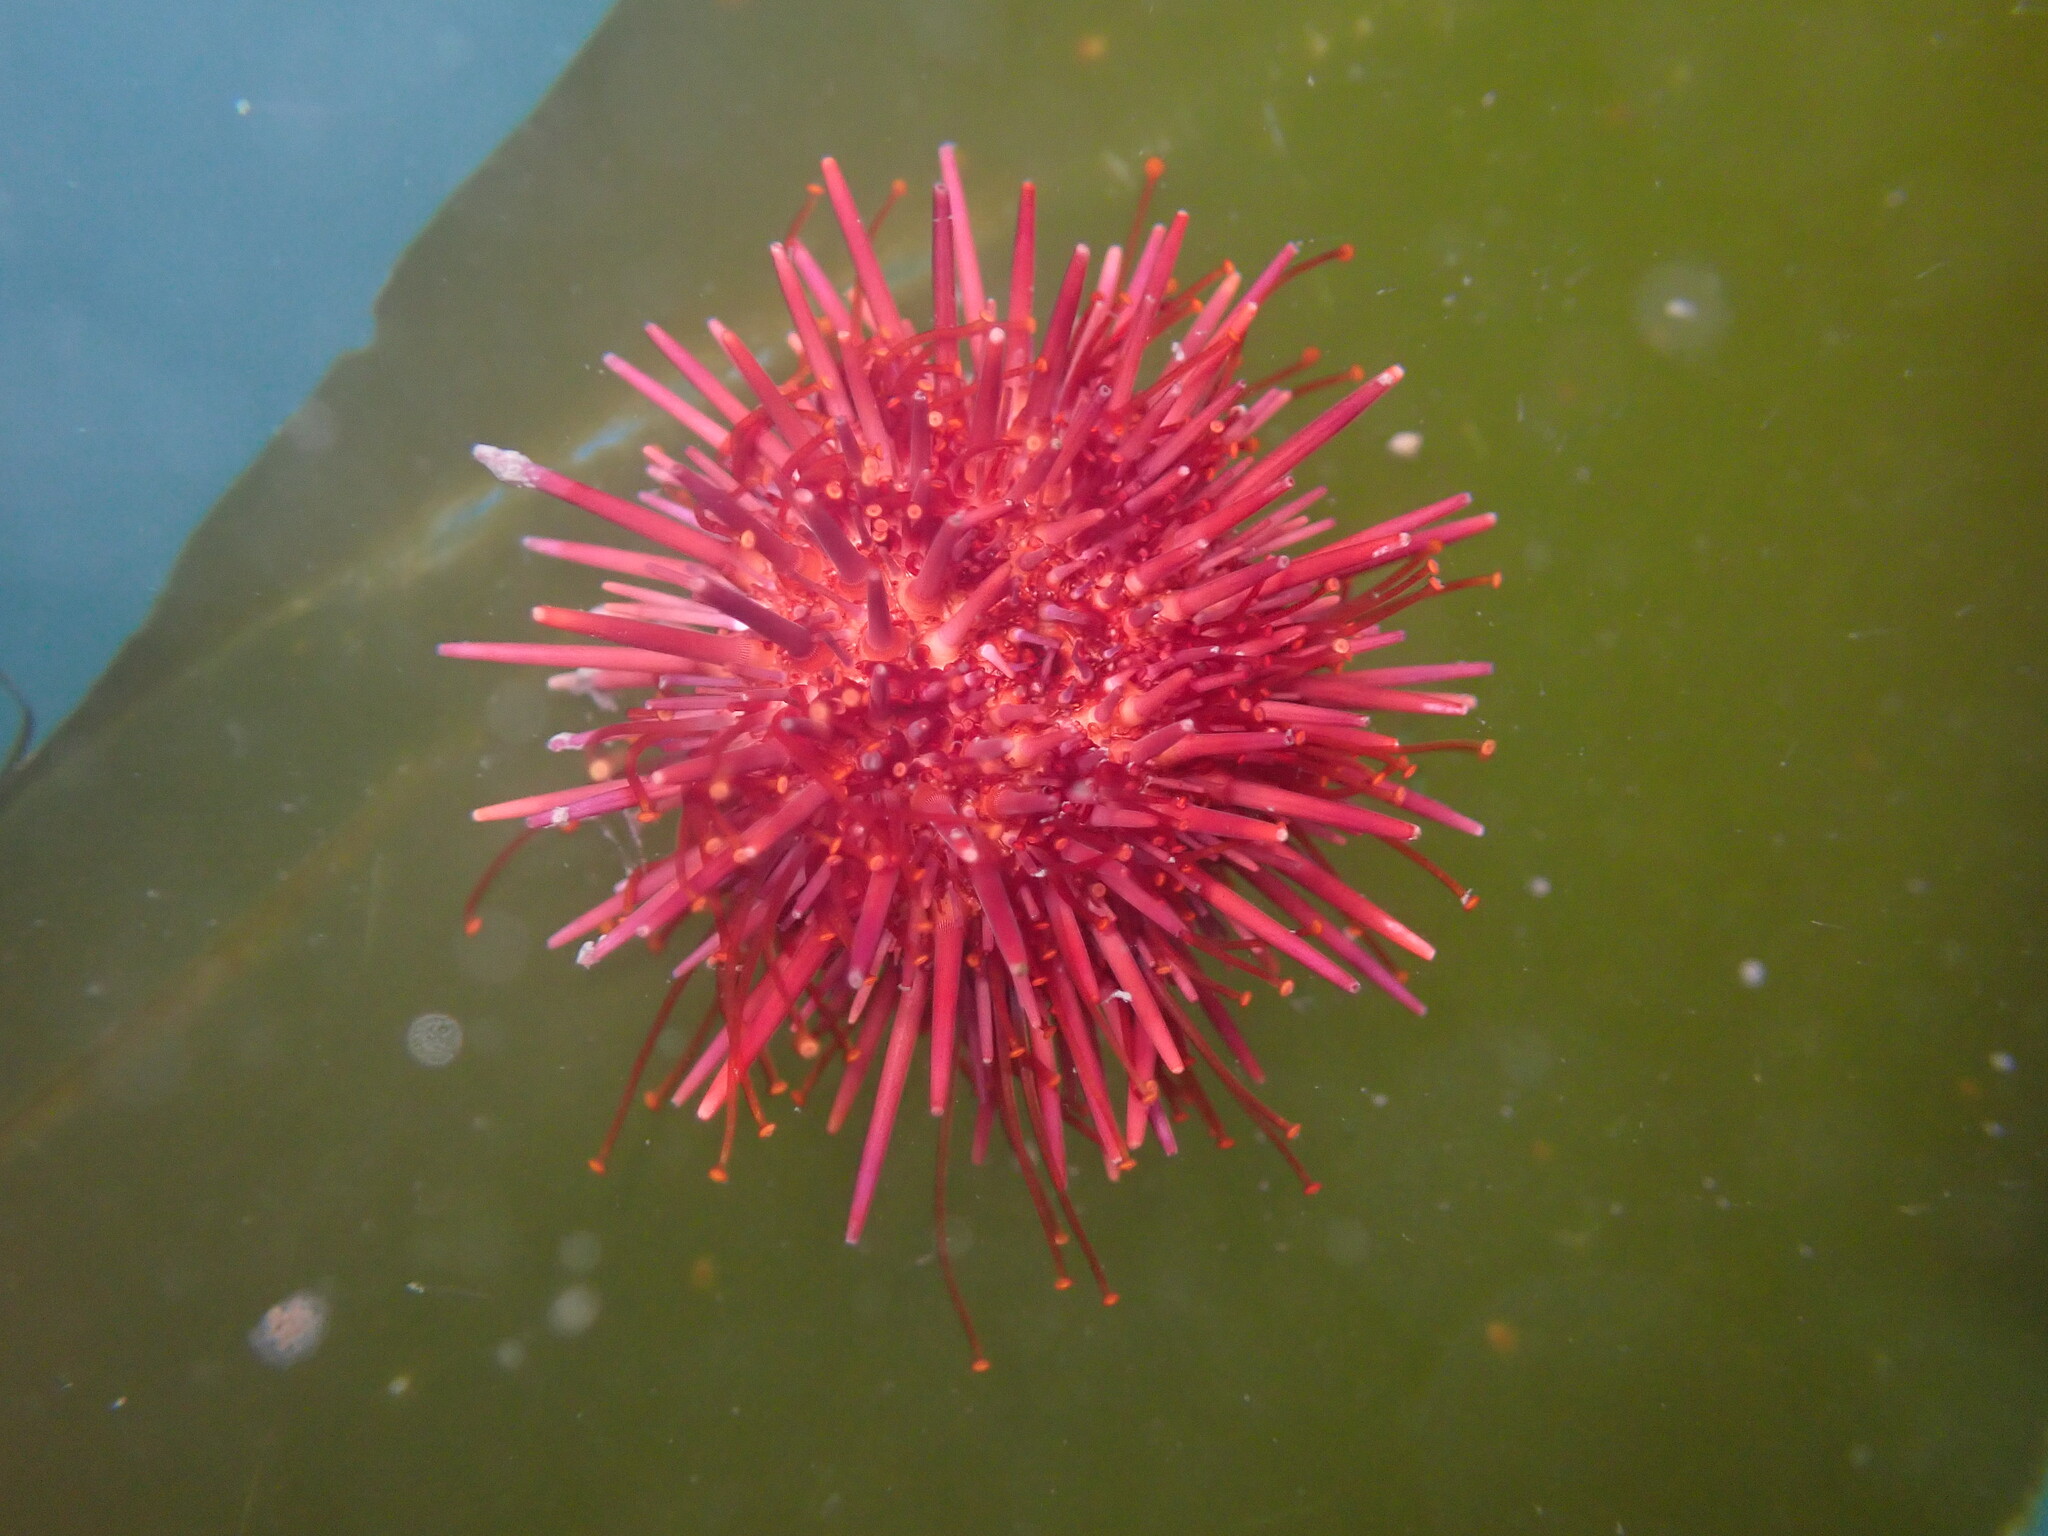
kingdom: Animalia
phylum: Echinodermata
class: Echinoidea
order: Camarodonta
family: Strongylocentrotidae
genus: Mesocentrotus
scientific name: Mesocentrotus franciscanus
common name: Red sea urchin
